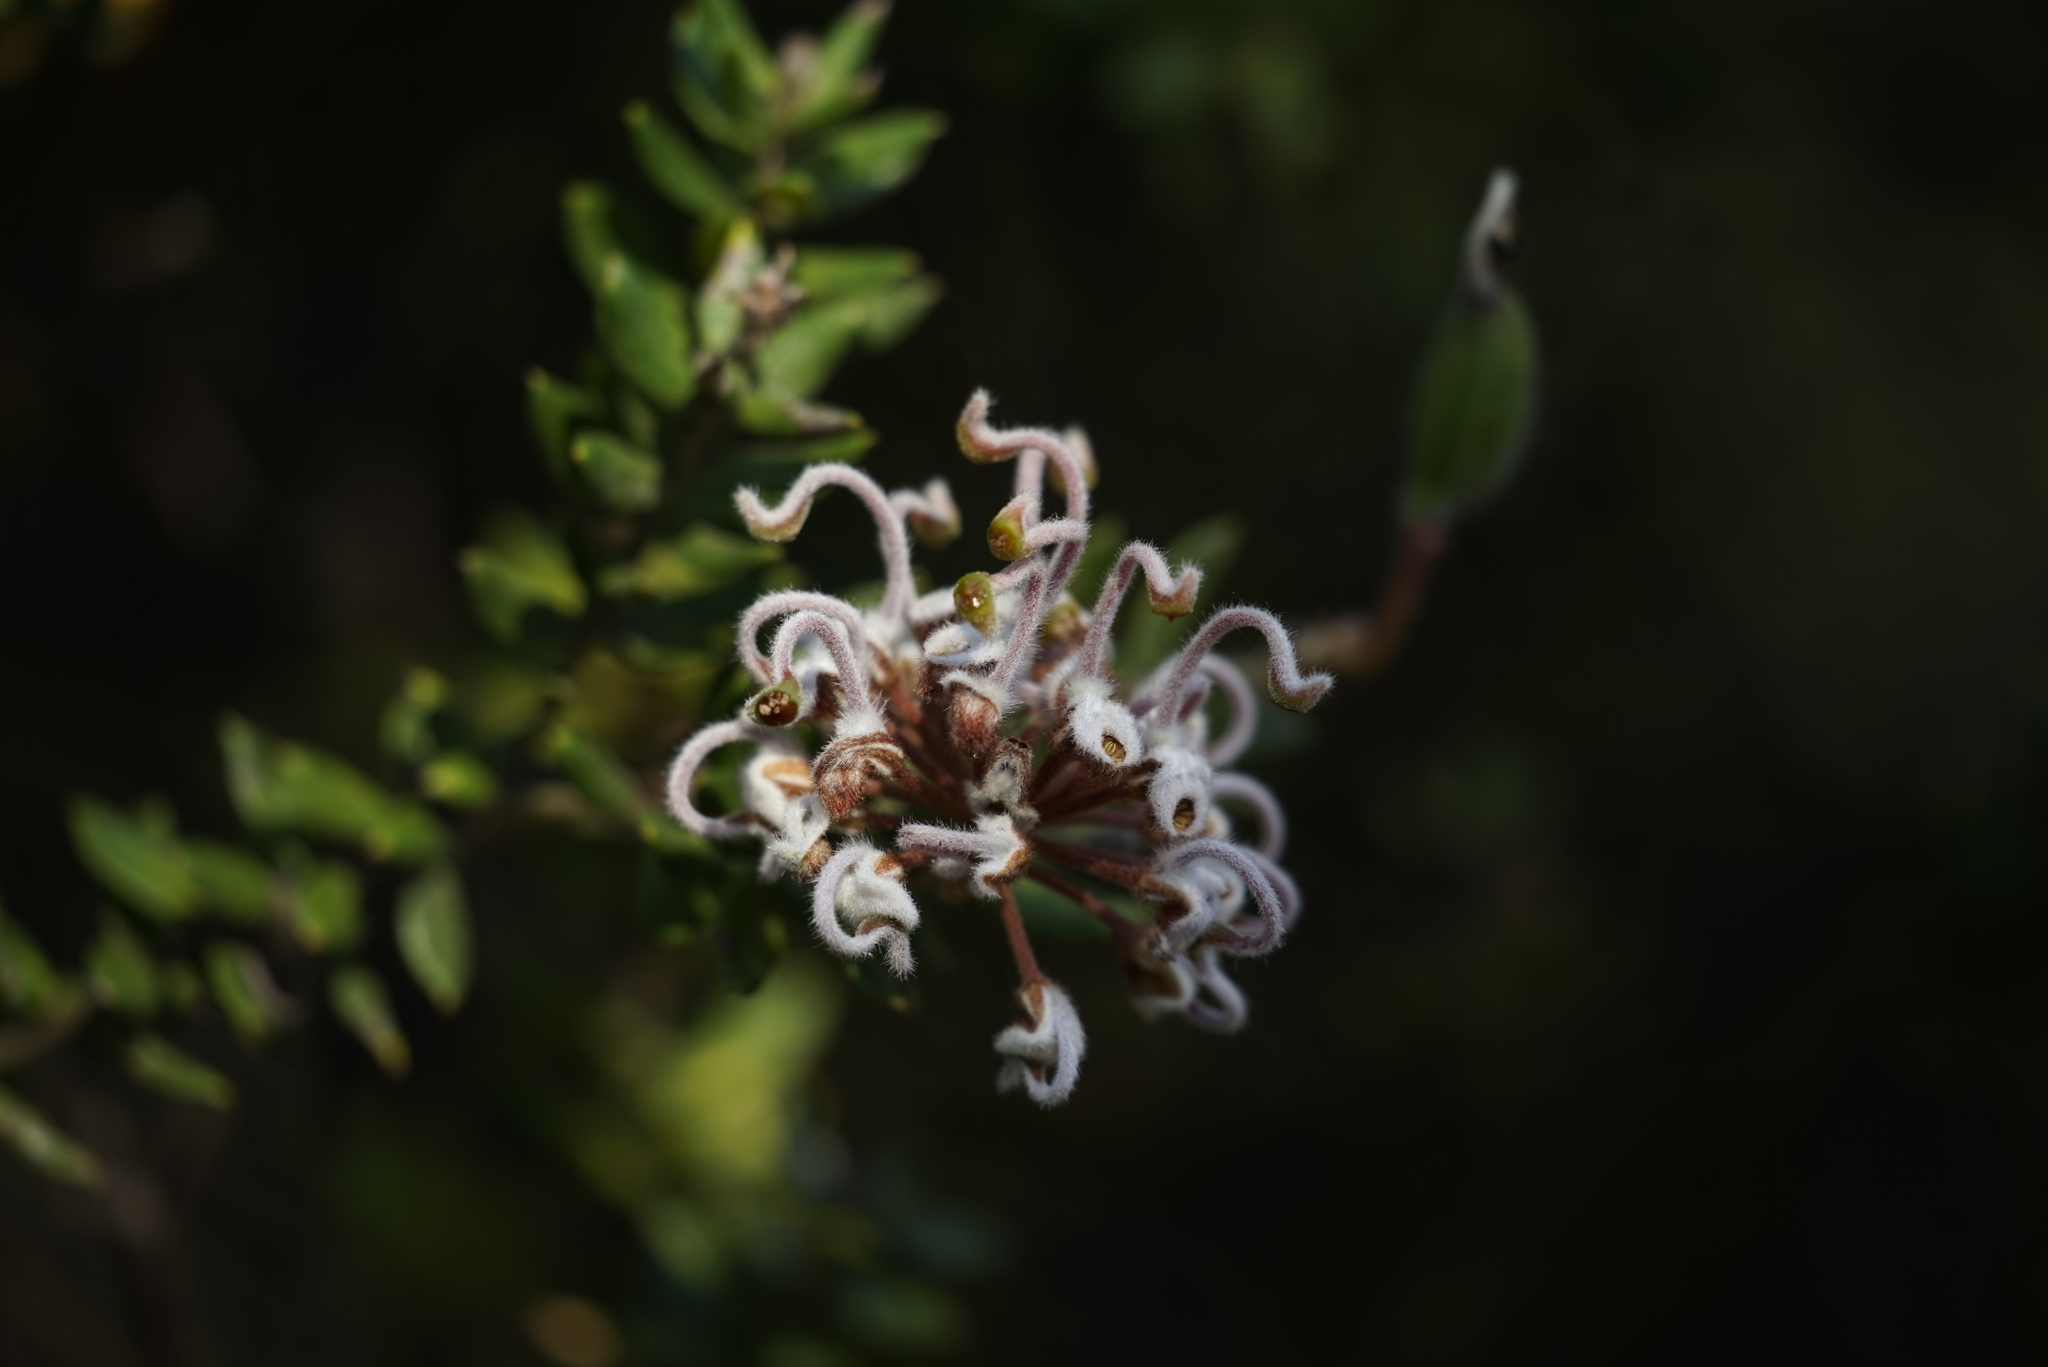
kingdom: Plantae
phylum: Tracheophyta
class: Magnoliopsida
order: Proteales
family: Proteaceae
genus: Grevillea
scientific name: Grevillea buxifolia
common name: Grey spiderflower
